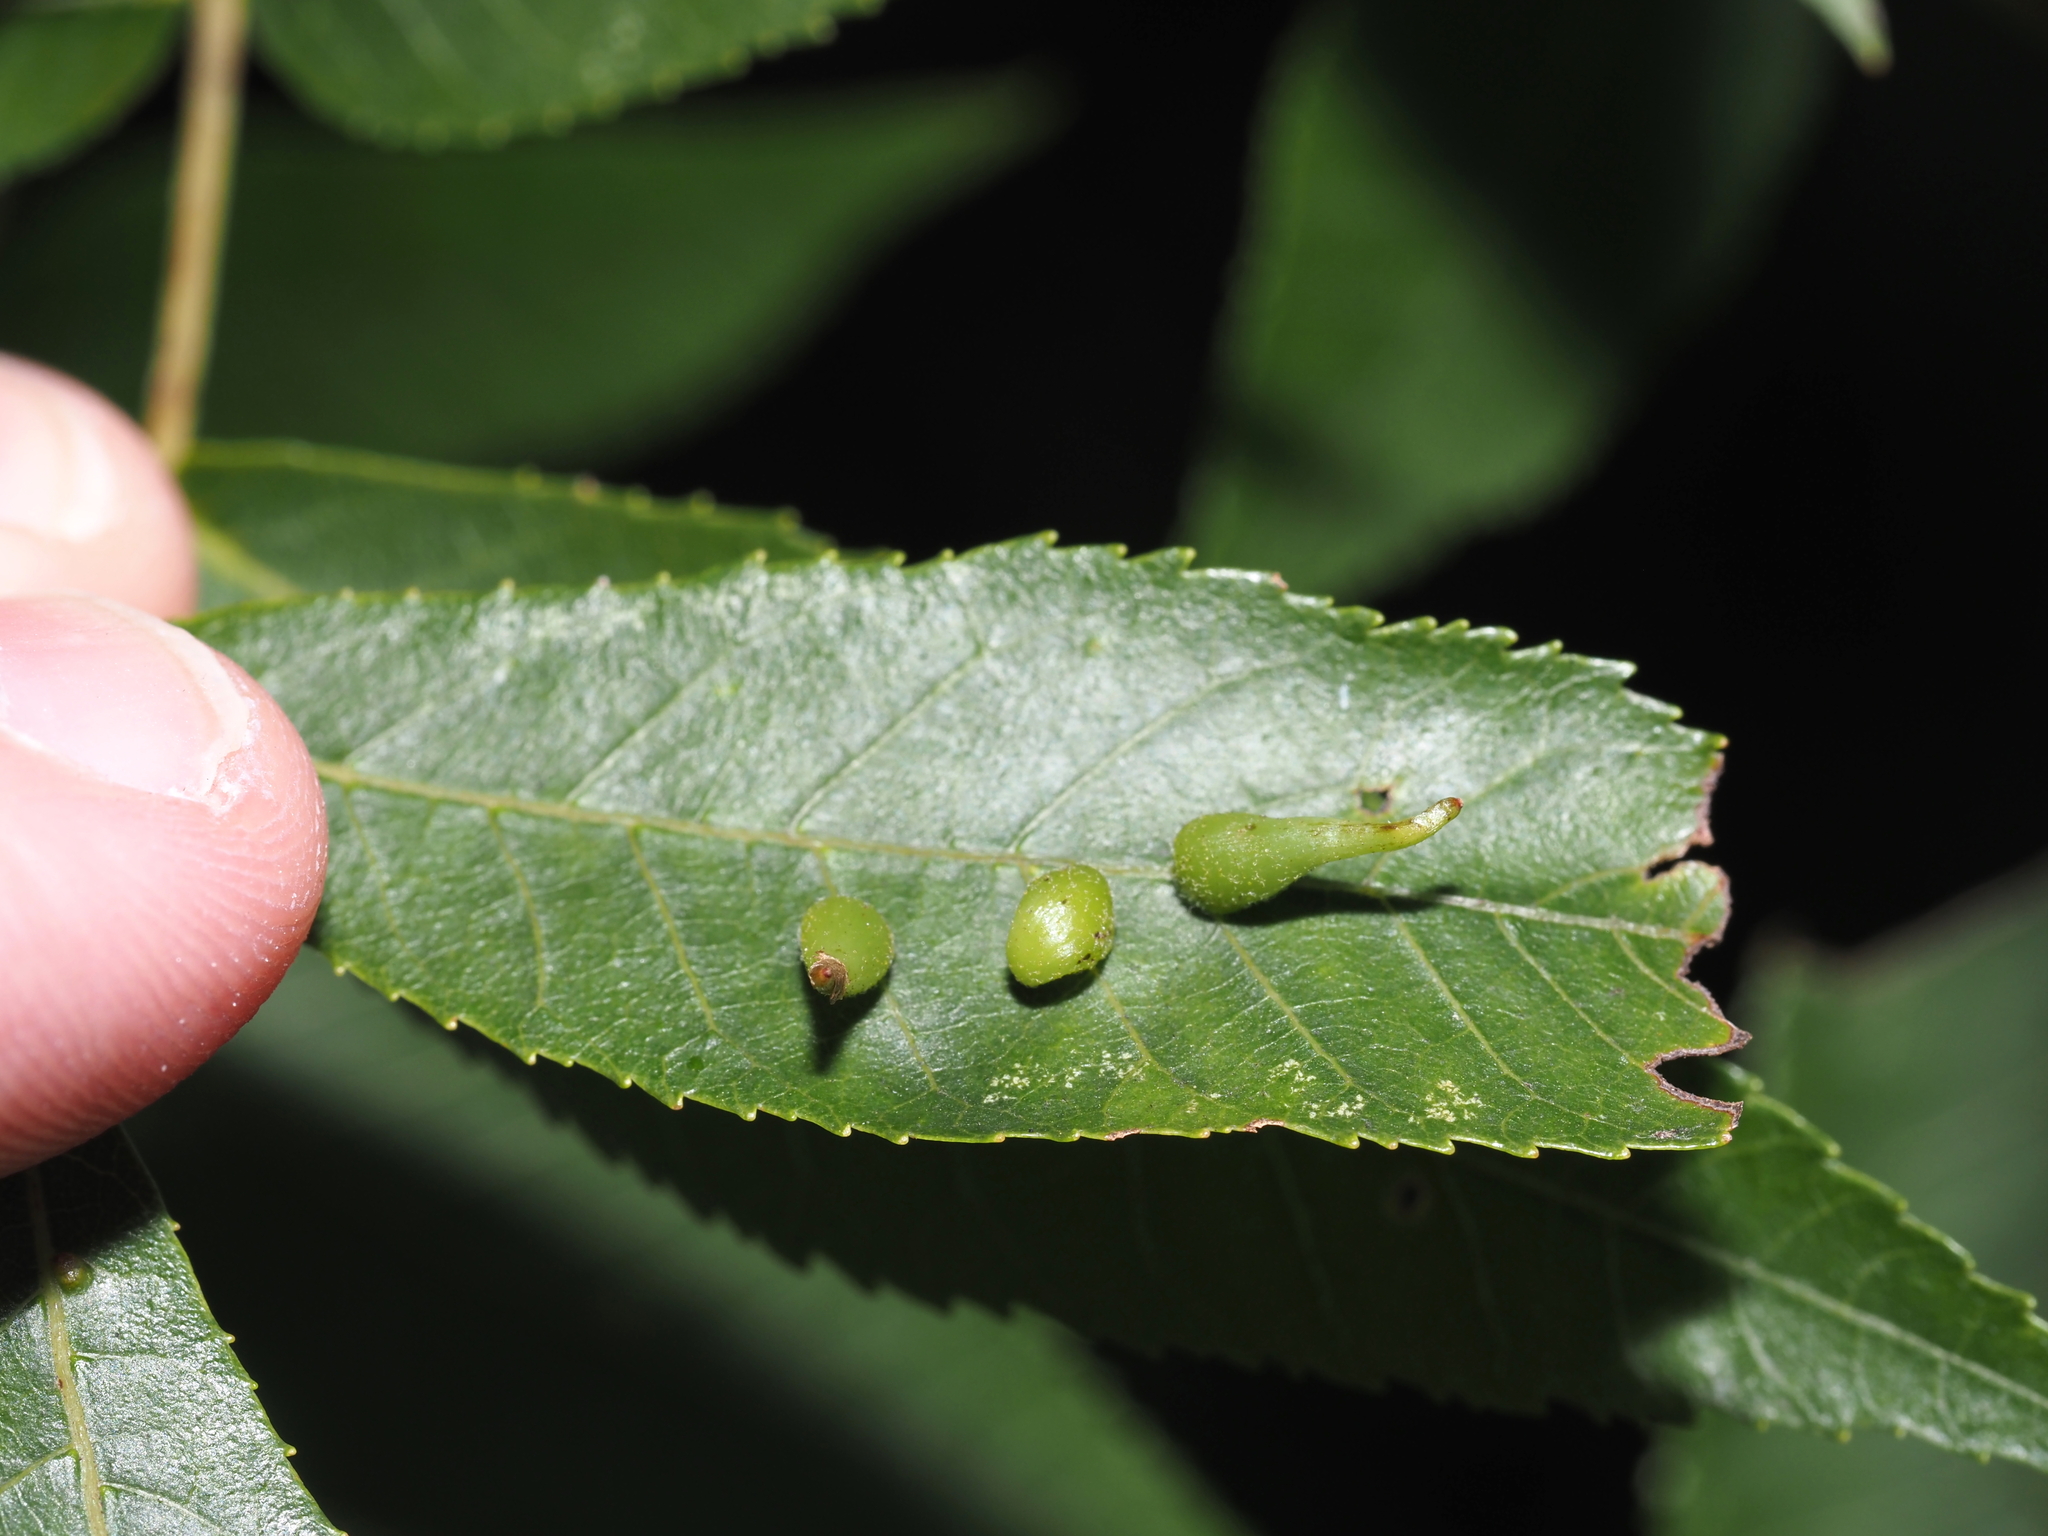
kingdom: Animalia
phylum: Arthropoda
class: Insecta
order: Diptera
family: Cecidomyiidae
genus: Caryomyia
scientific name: Caryomyia spinulosa
